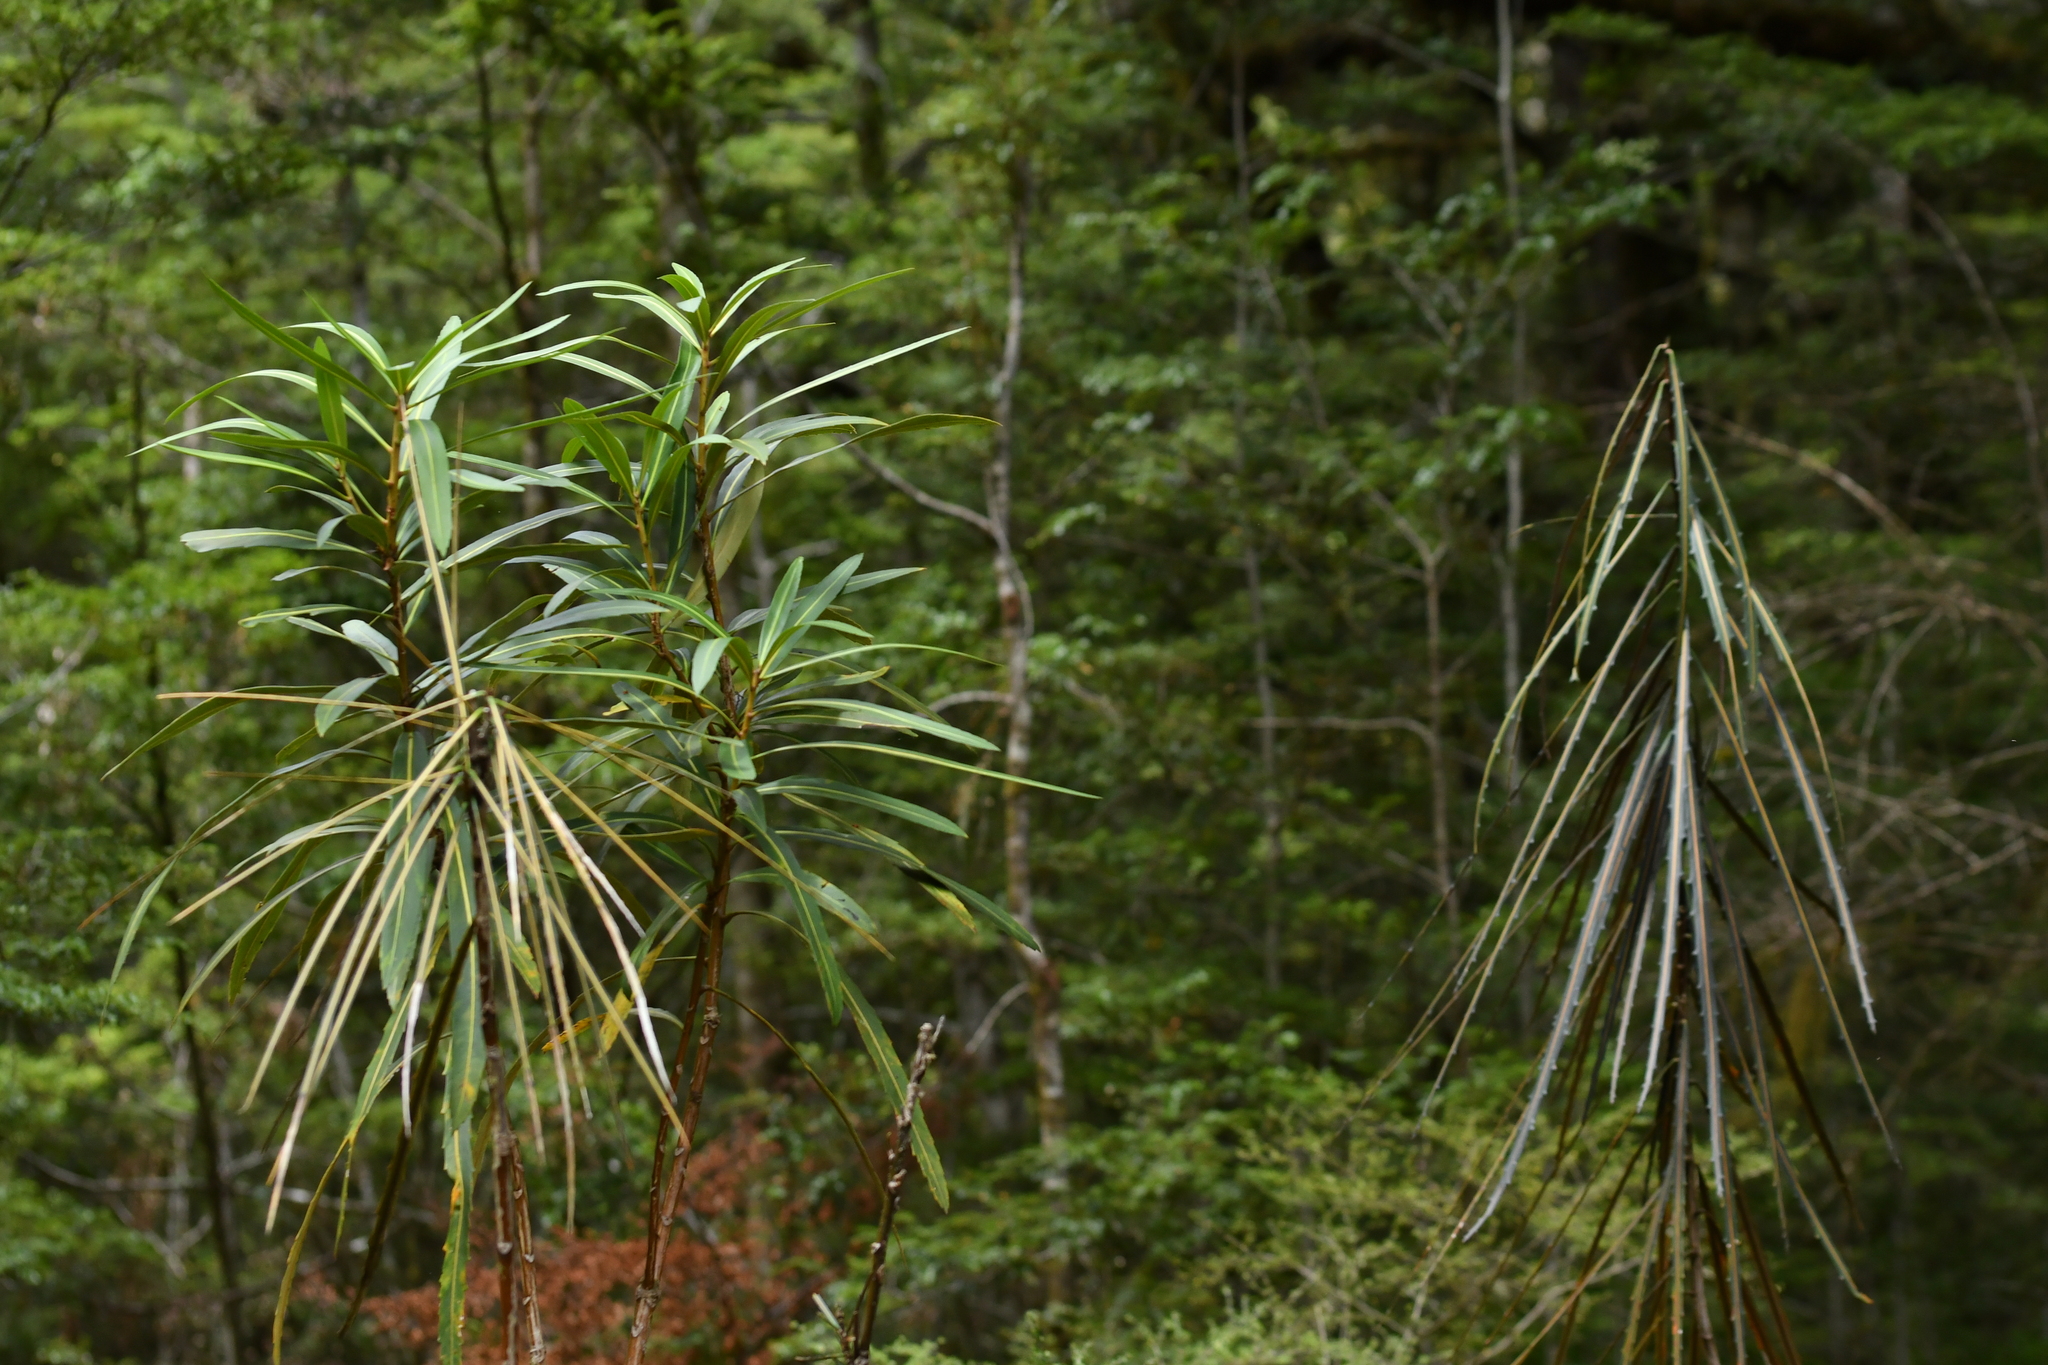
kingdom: Plantae
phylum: Tracheophyta
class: Magnoliopsida
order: Apiales
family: Araliaceae
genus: Pseudopanax
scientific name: Pseudopanax crassifolius
